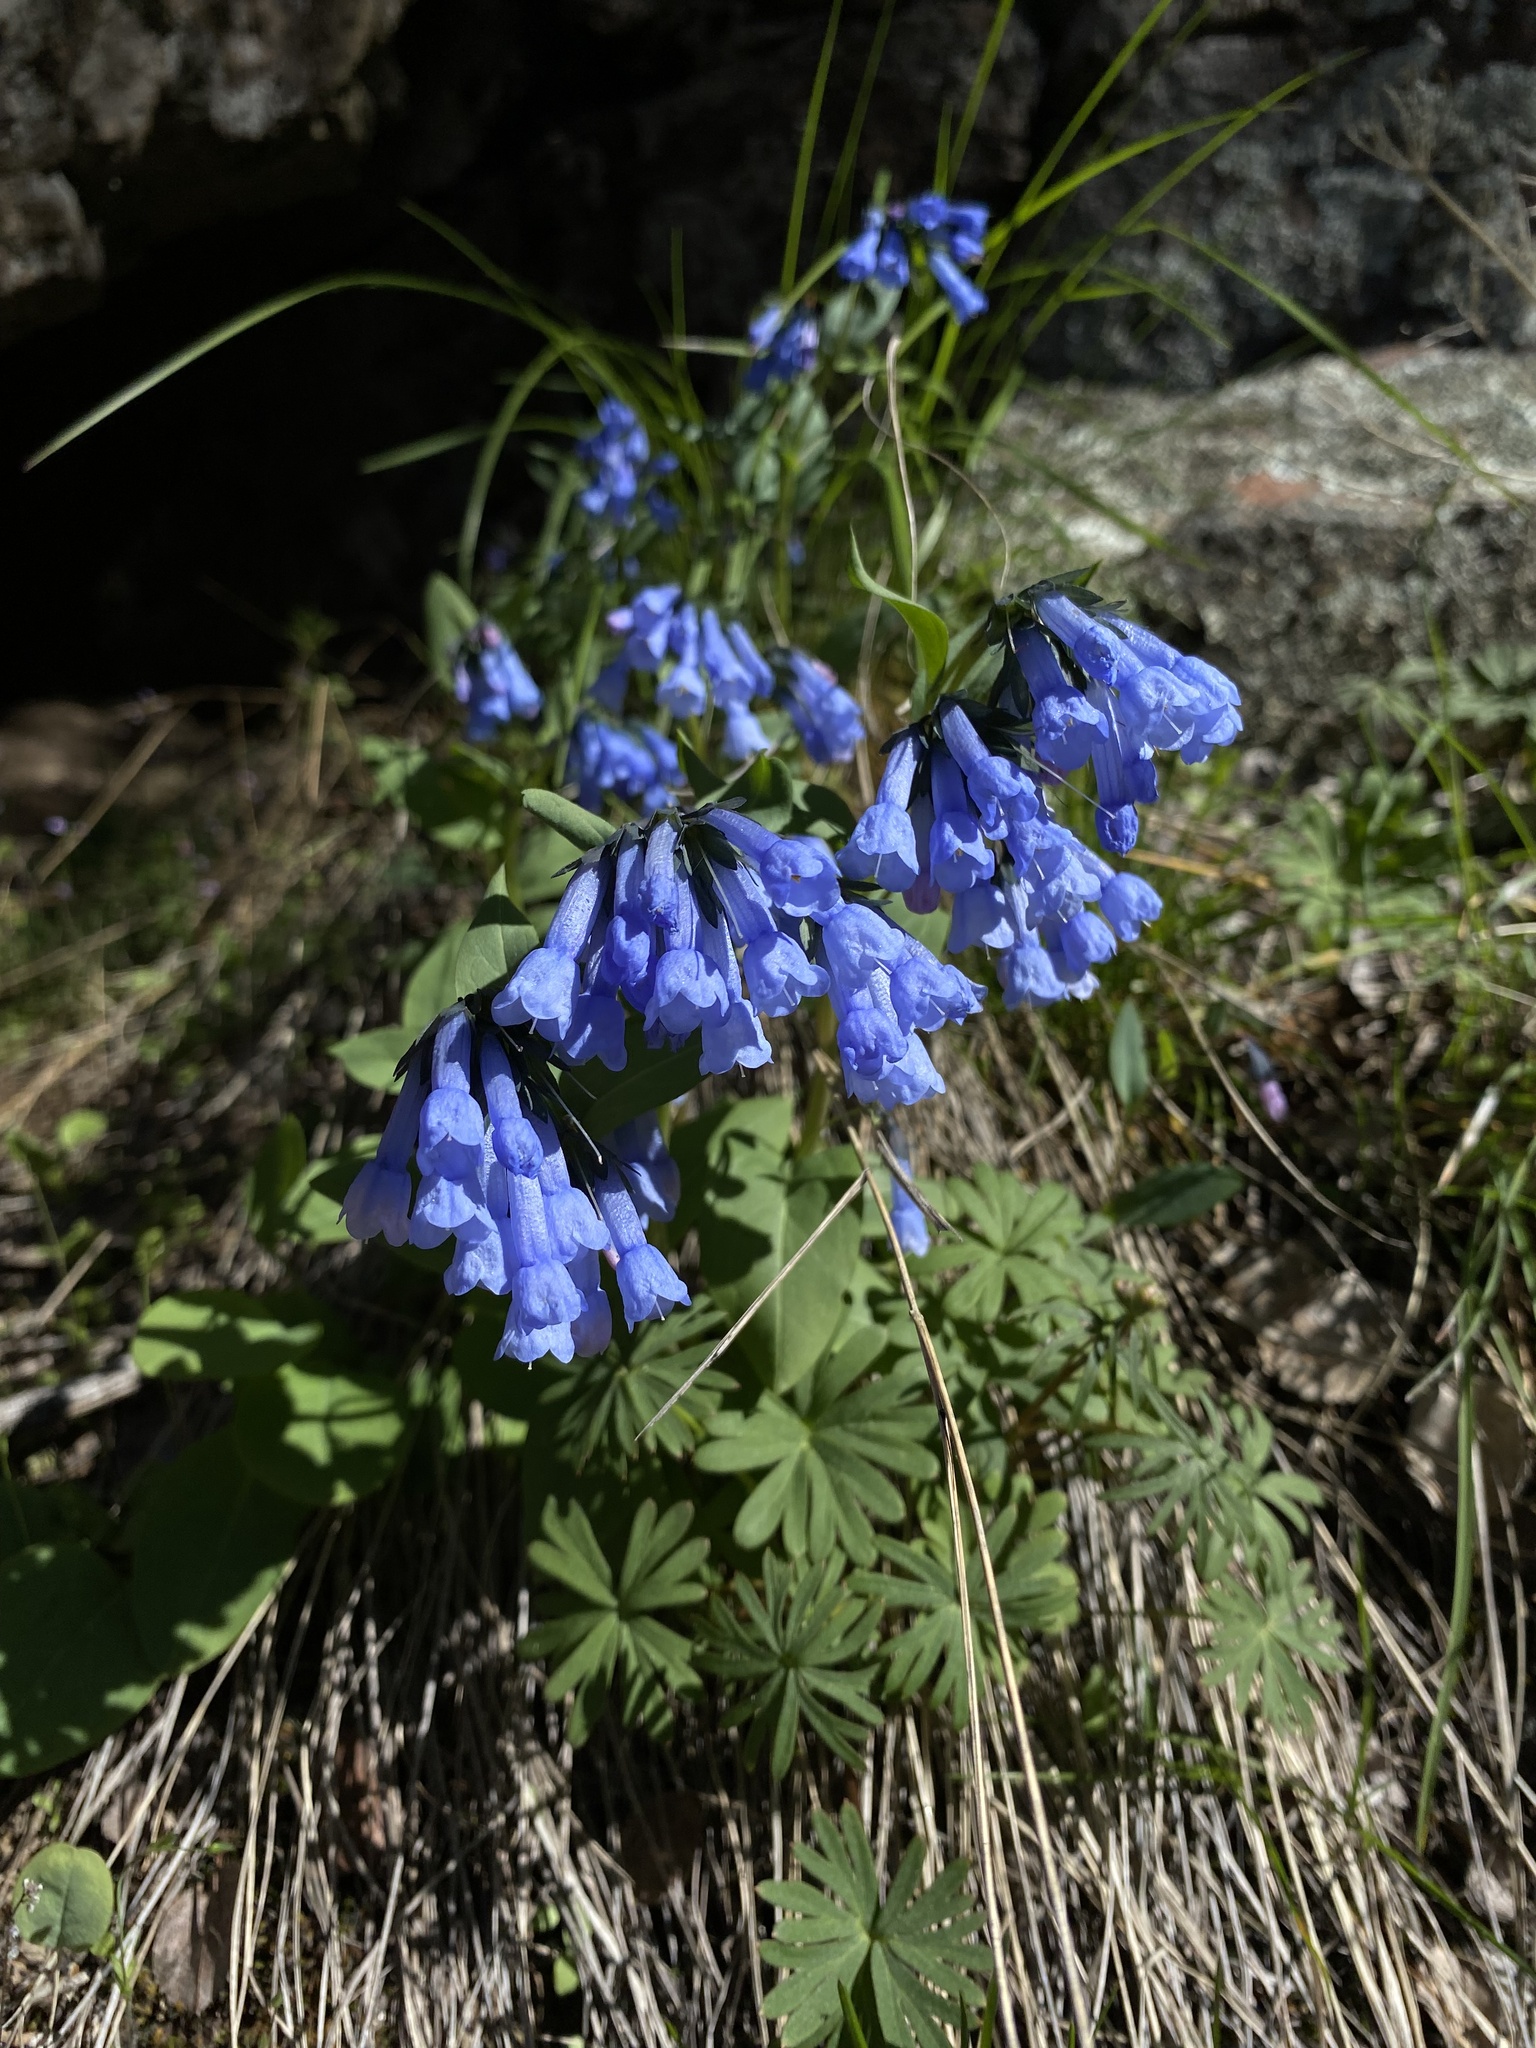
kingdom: Plantae
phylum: Tracheophyta
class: Magnoliopsida
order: Boraginales
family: Boraginaceae
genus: Mertensia
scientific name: Mertensia longiflora
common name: Large-flowered bluebells
